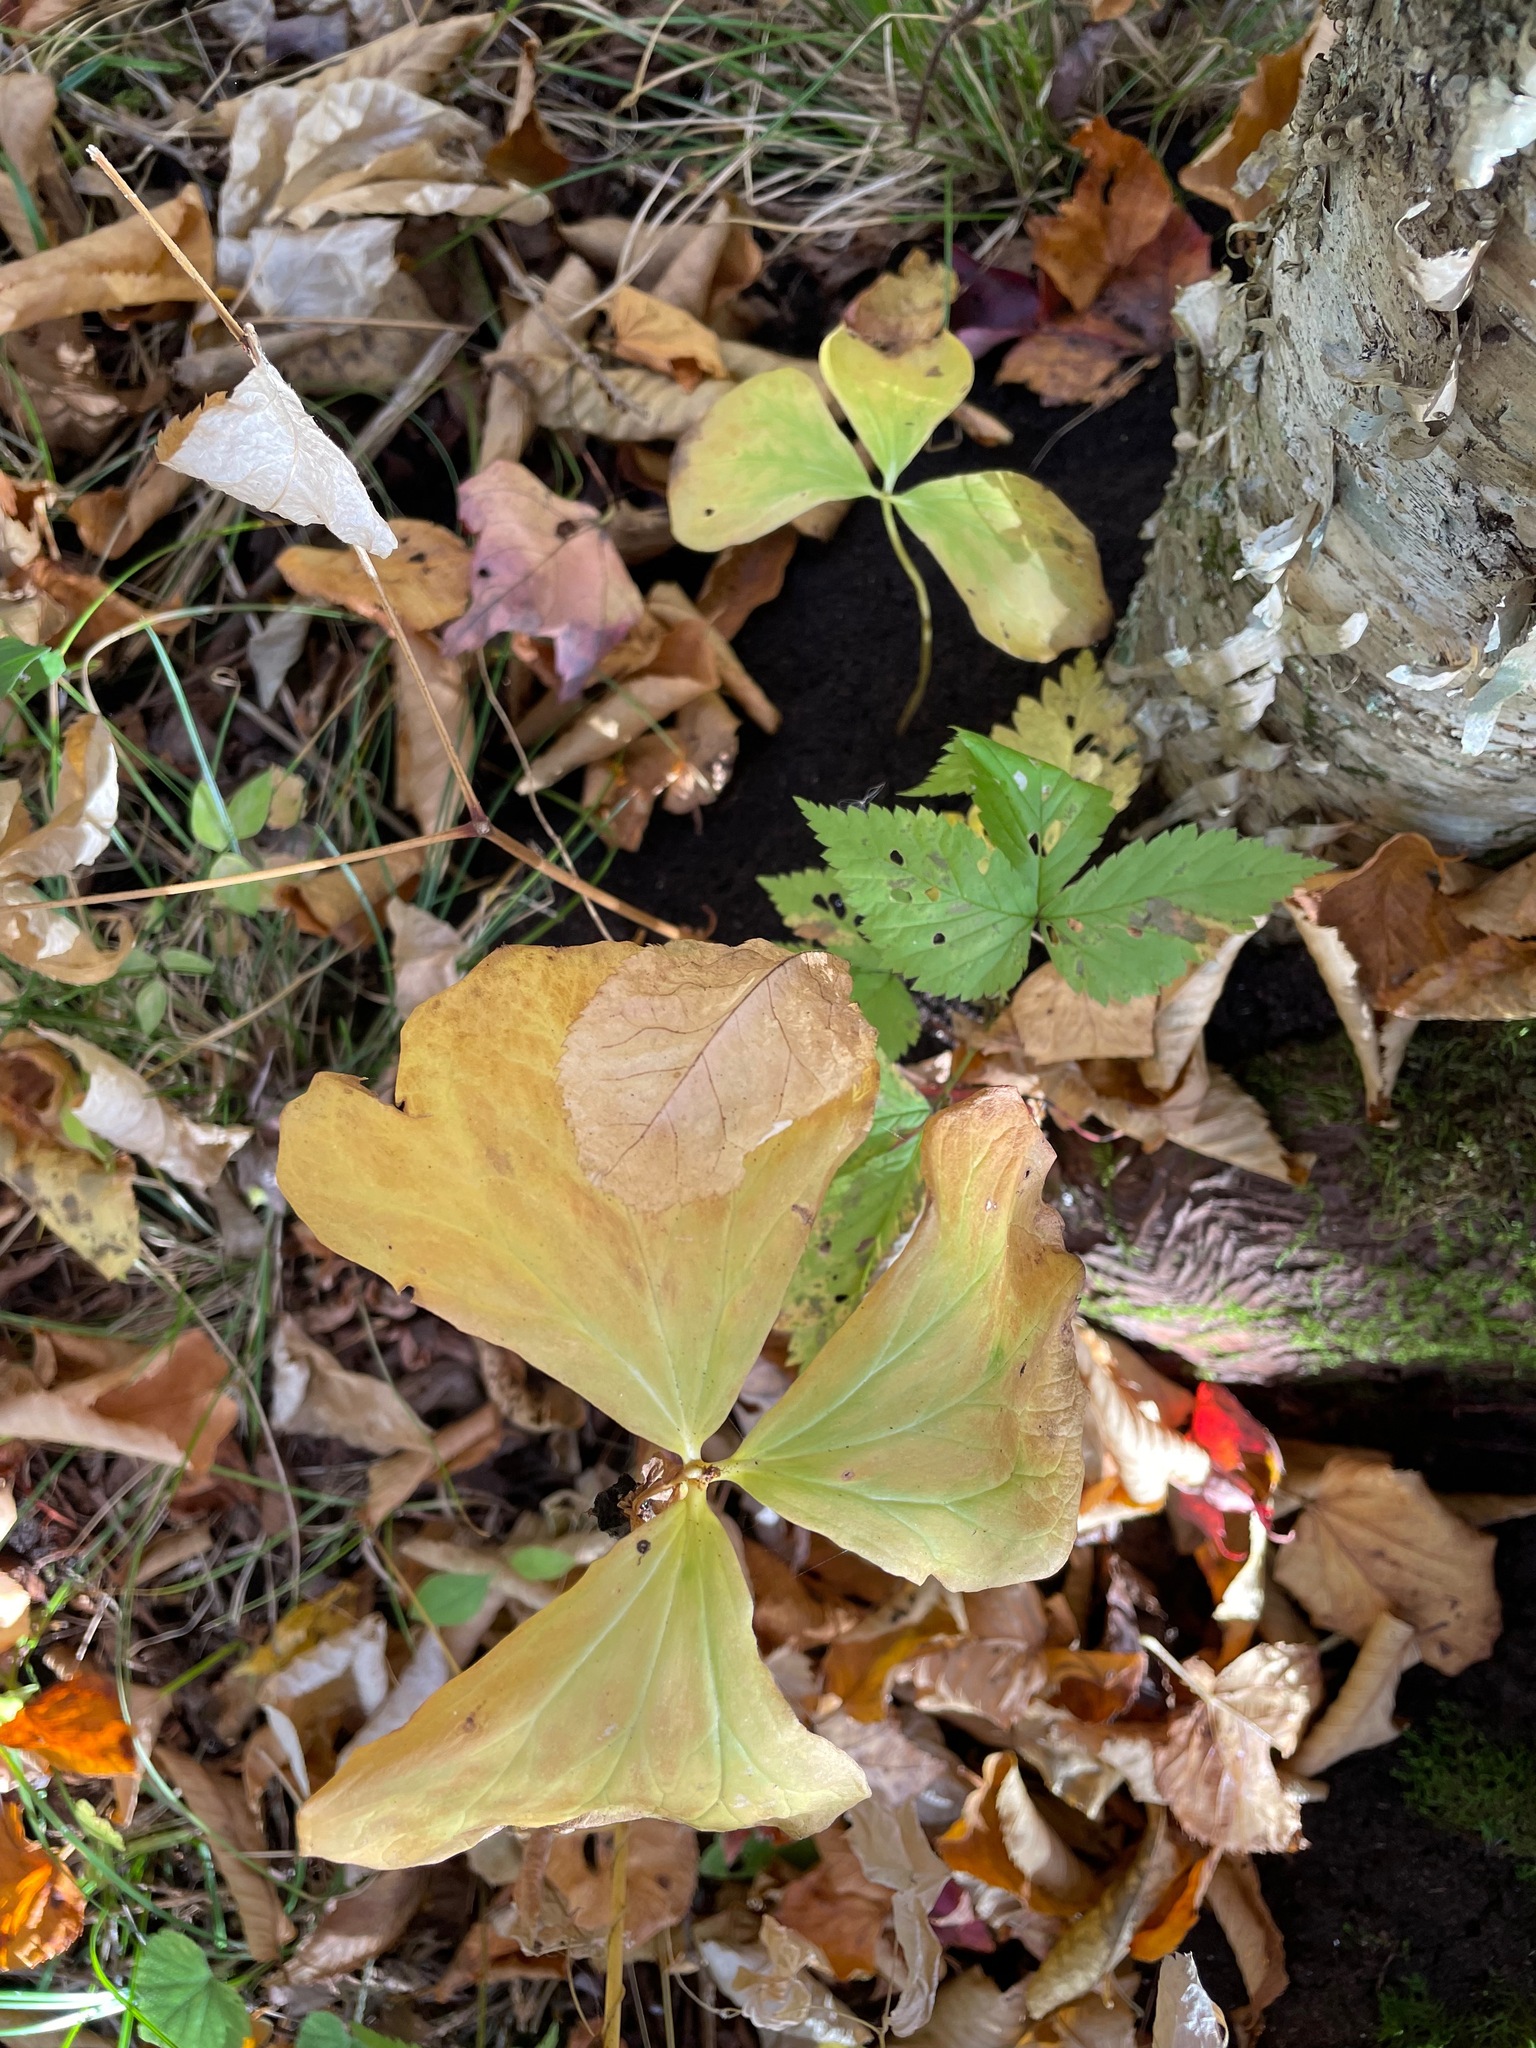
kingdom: Plantae
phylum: Tracheophyta
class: Liliopsida
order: Liliales
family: Melanthiaceae
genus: Trillium
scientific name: Trillium cernuum
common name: Nodding trillium
